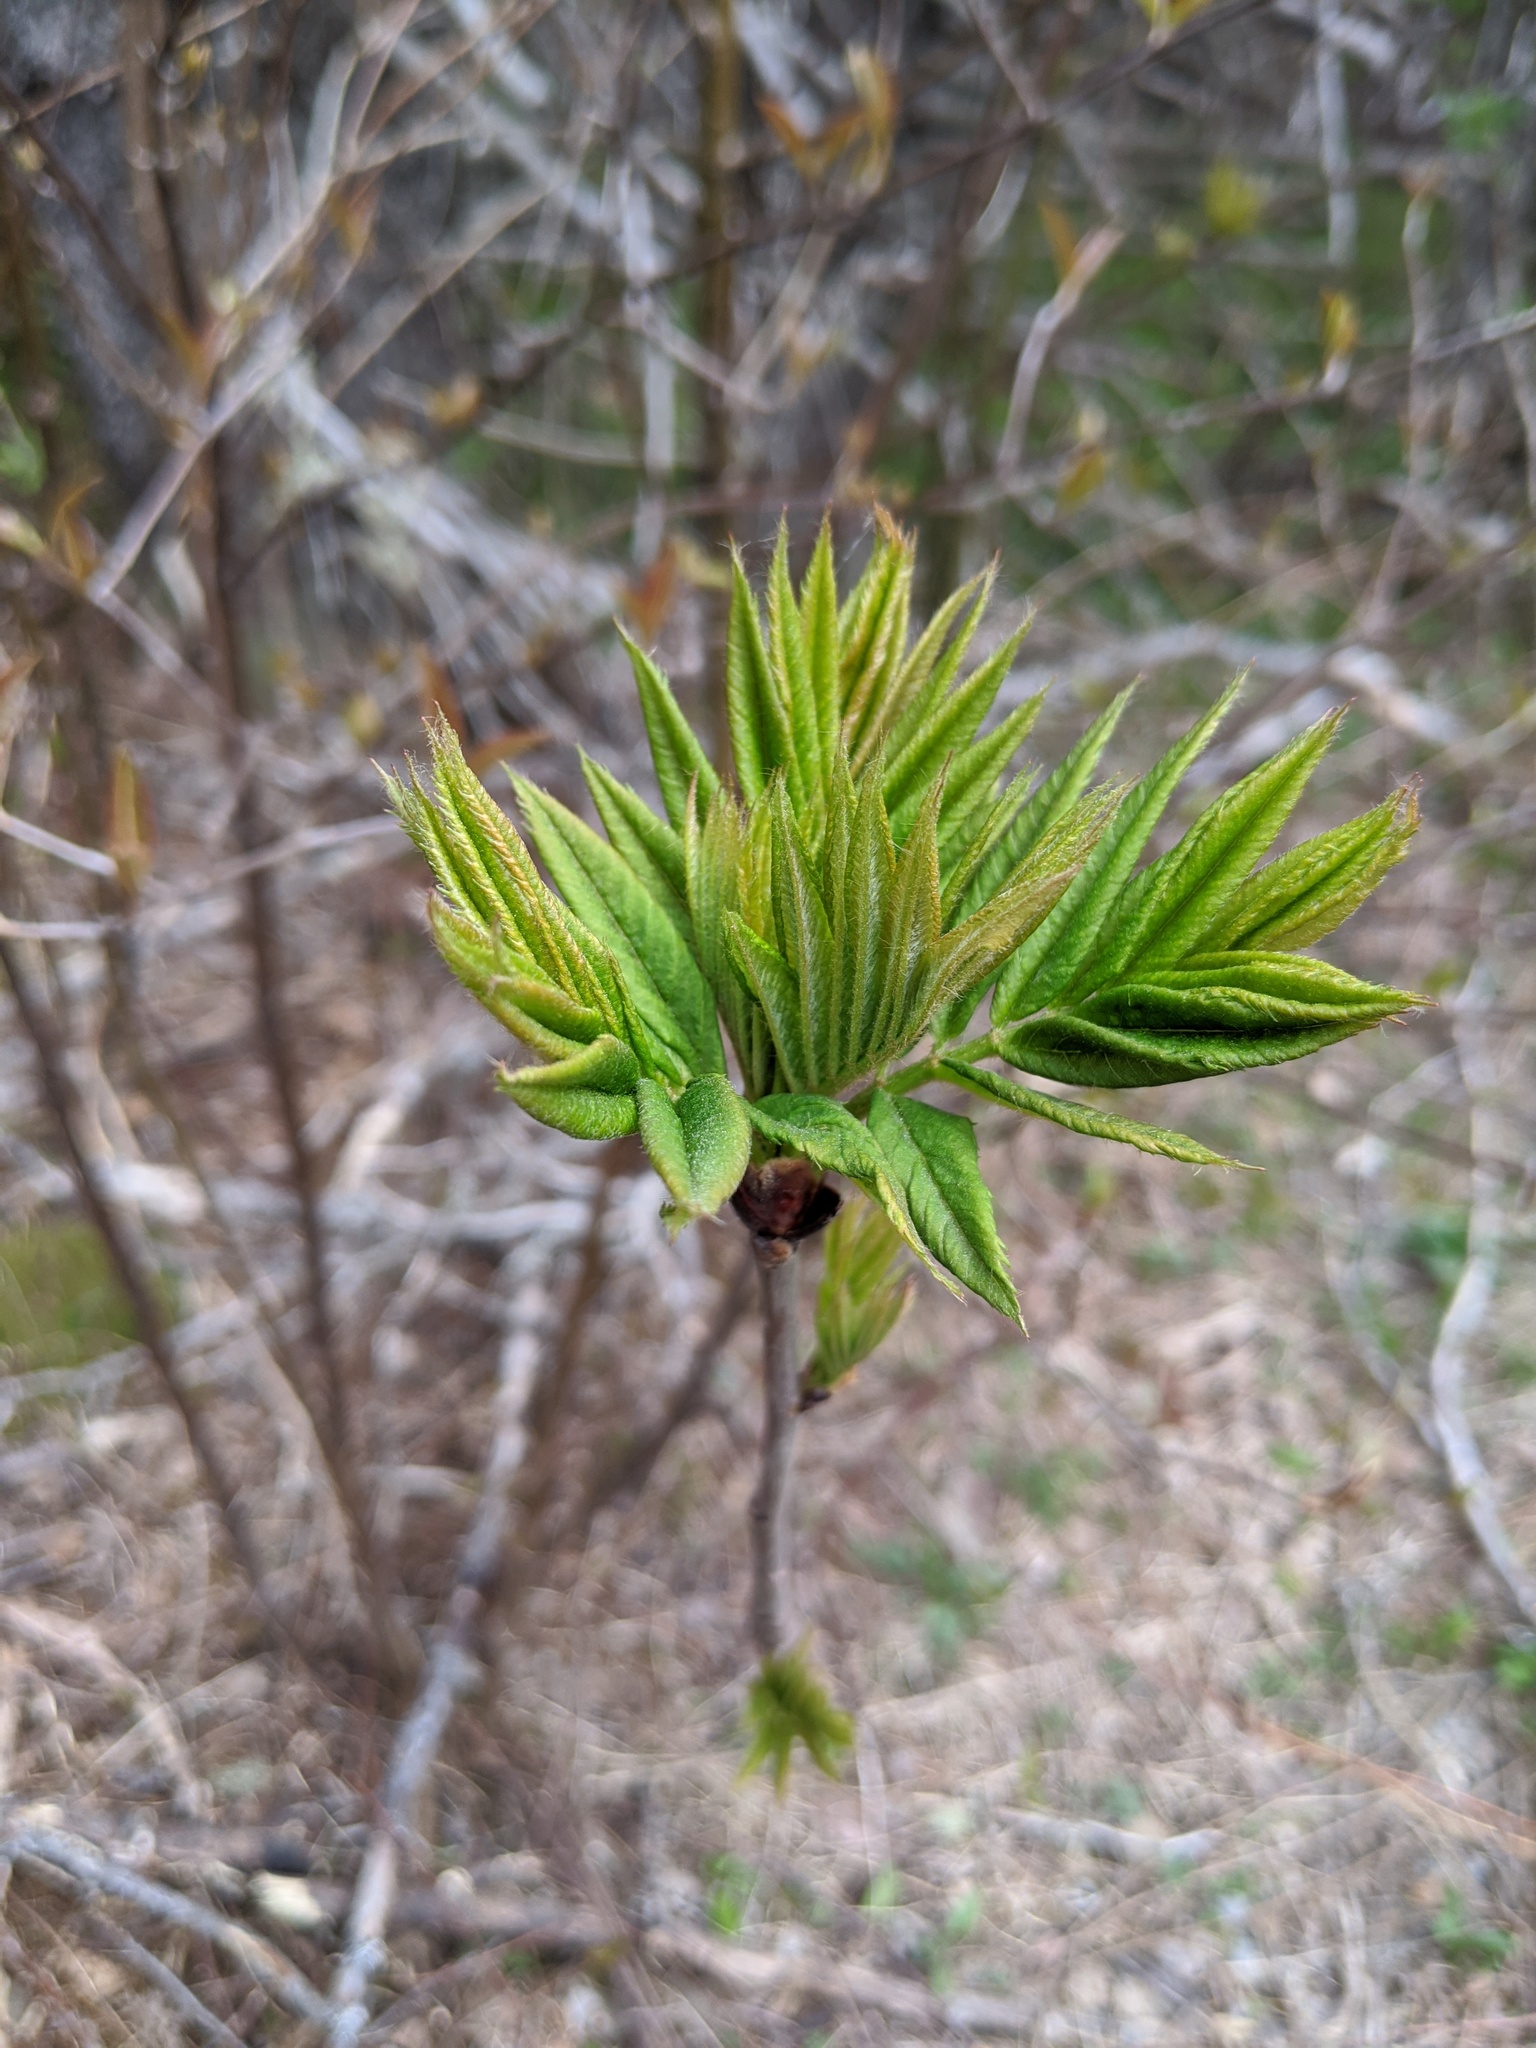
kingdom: Plantae
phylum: Tracheophyta
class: Magnoliopsida
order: Dipsacales
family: Viburnaceae
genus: Sambucus
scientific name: Sambucus racemosa
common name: Red-berried elder
